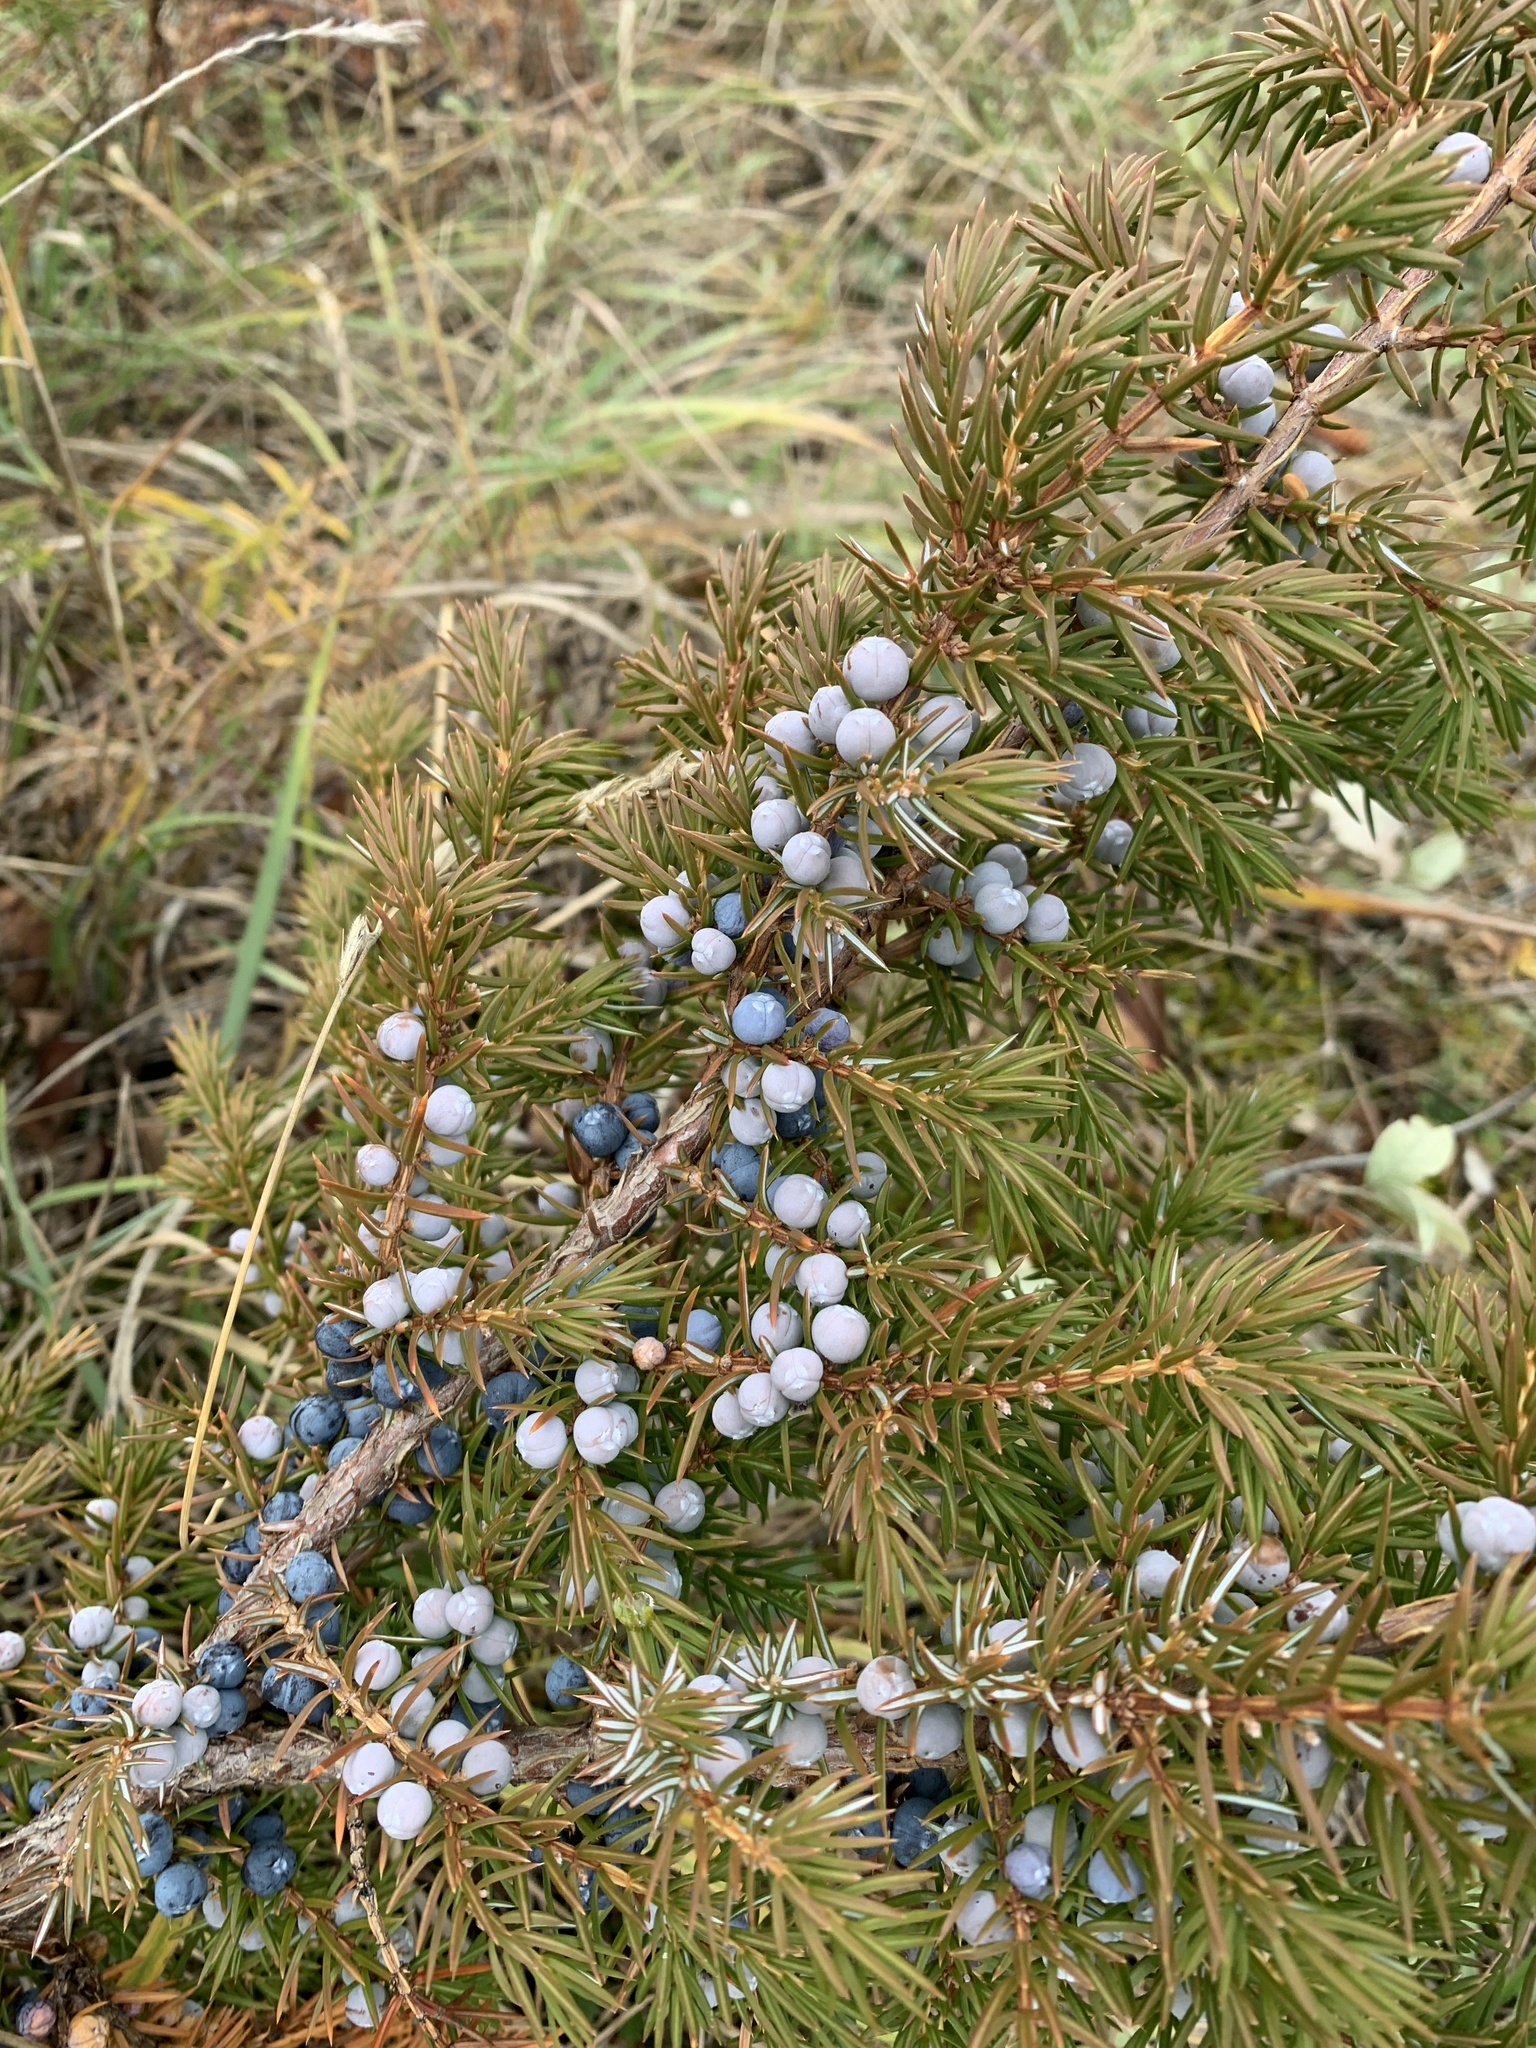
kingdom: Plantae
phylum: Tracheophyta
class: Pinopsida
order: Pinales
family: Cupressaceae
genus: Juniperus
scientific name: Juniperus communis
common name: Common juniper
